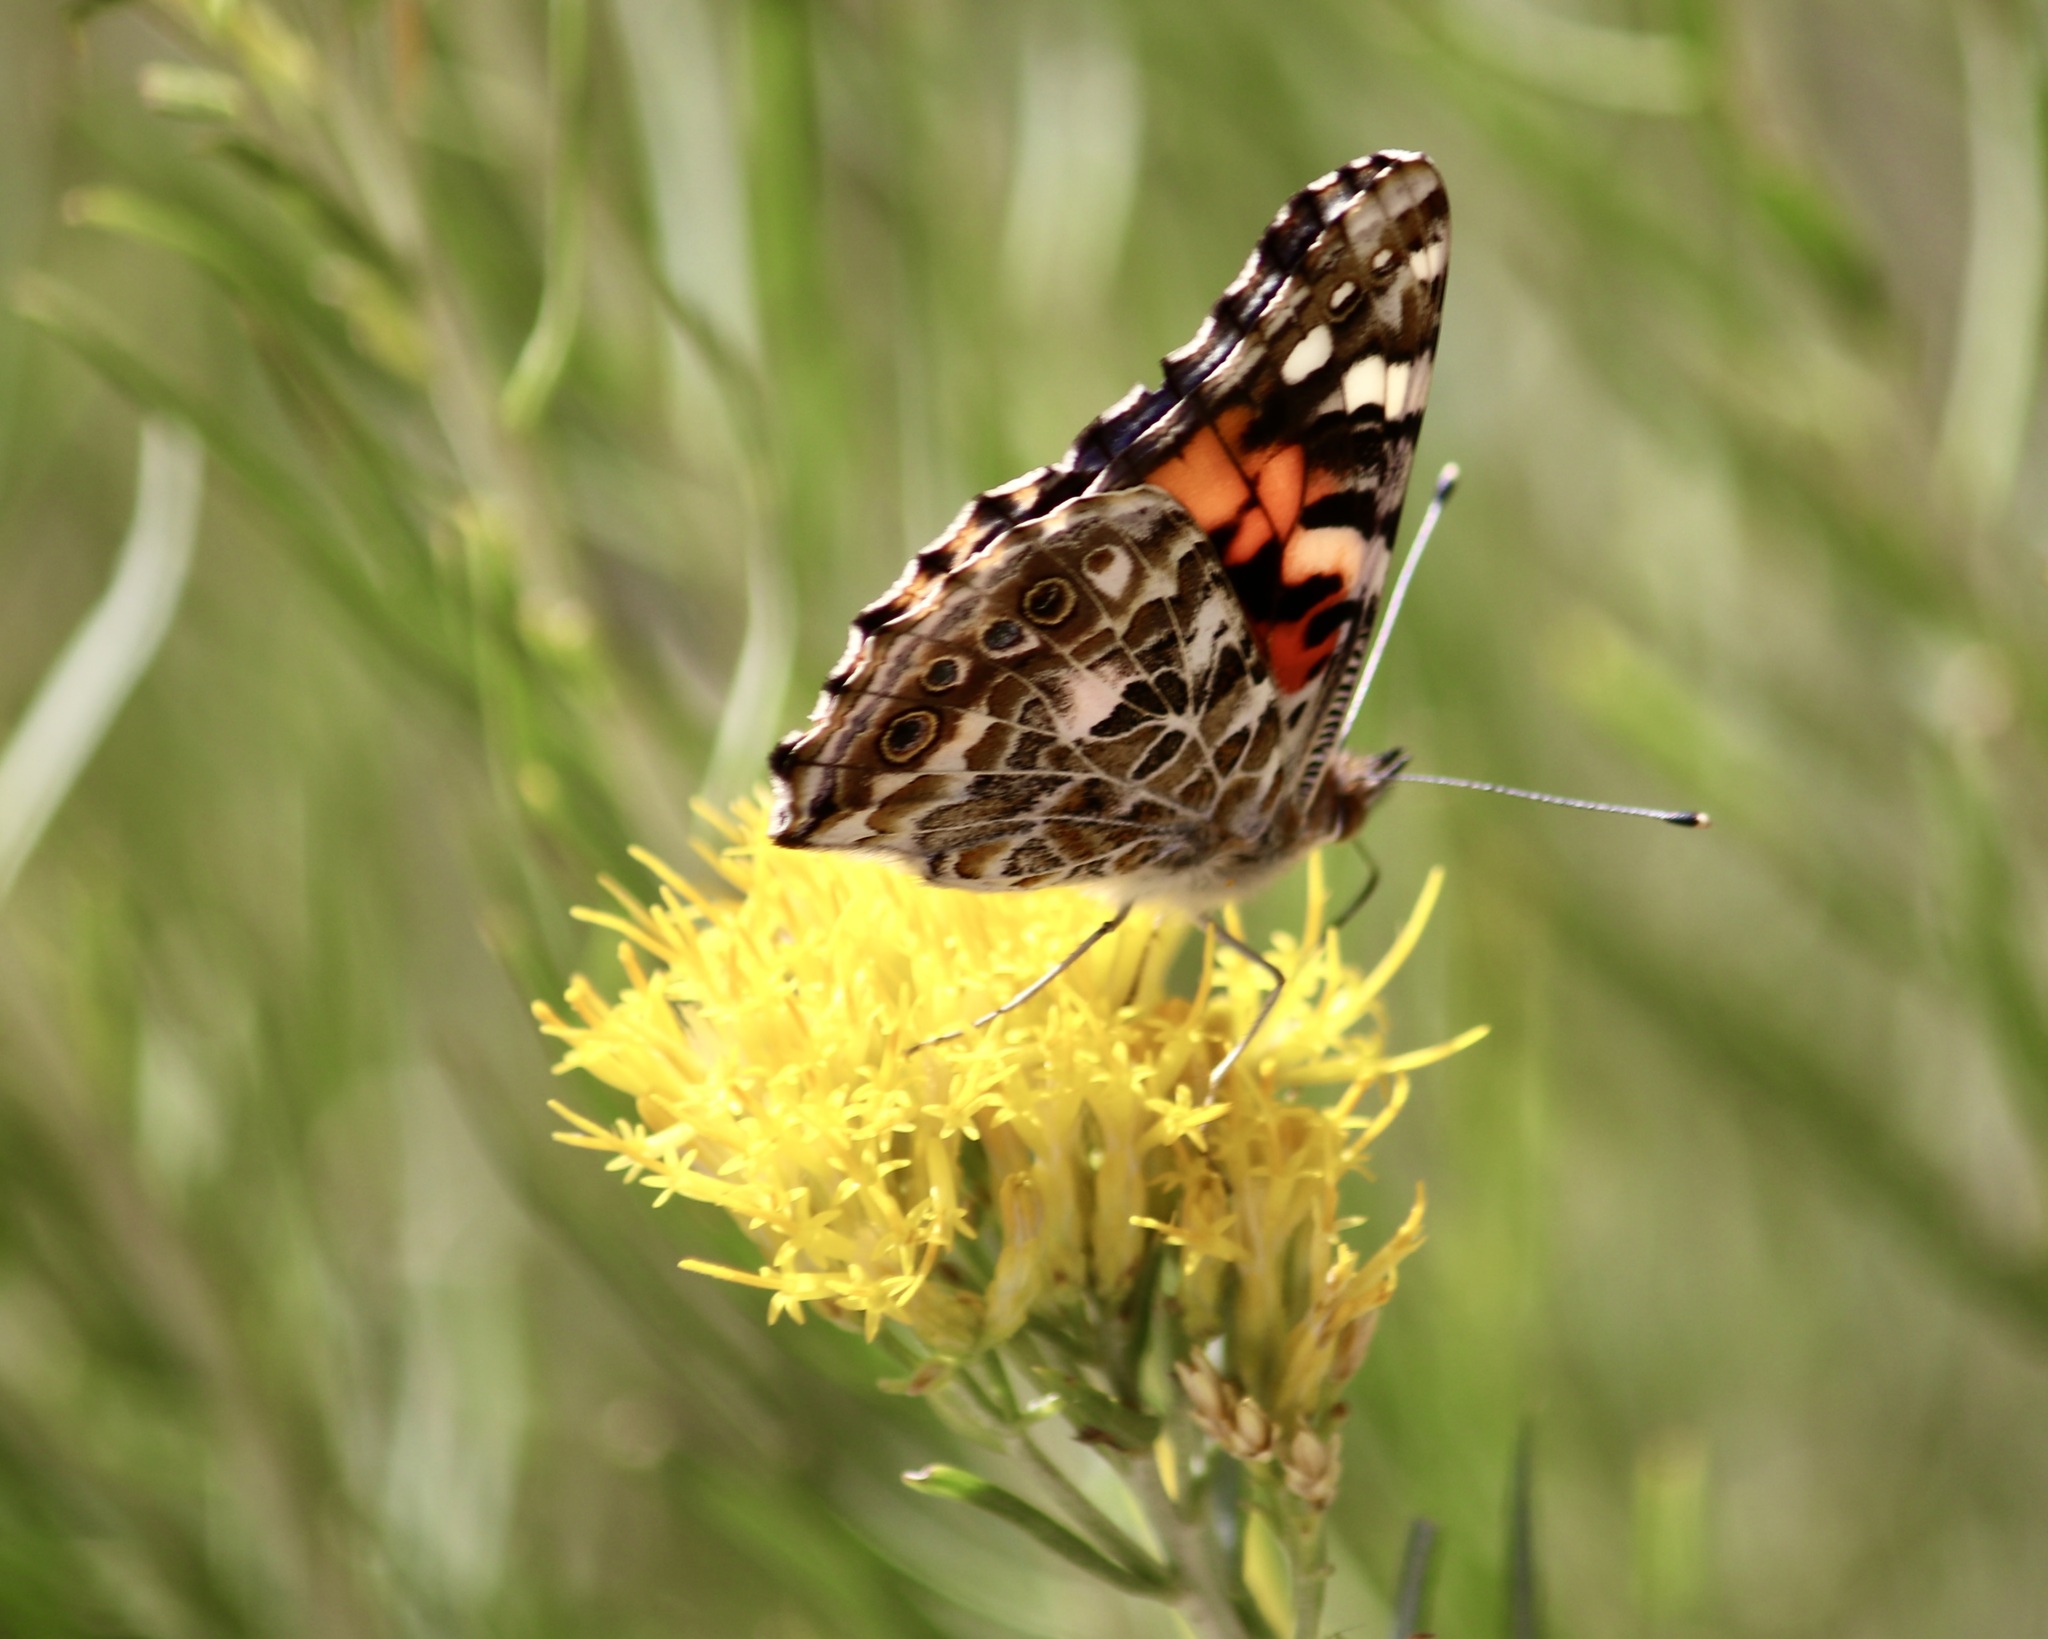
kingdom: Animalia
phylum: Arthropoda
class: Insecta
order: Lepidoptera
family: Nymphalidae
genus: Vanessa
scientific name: Vanessa carye
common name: Subtropical lady
